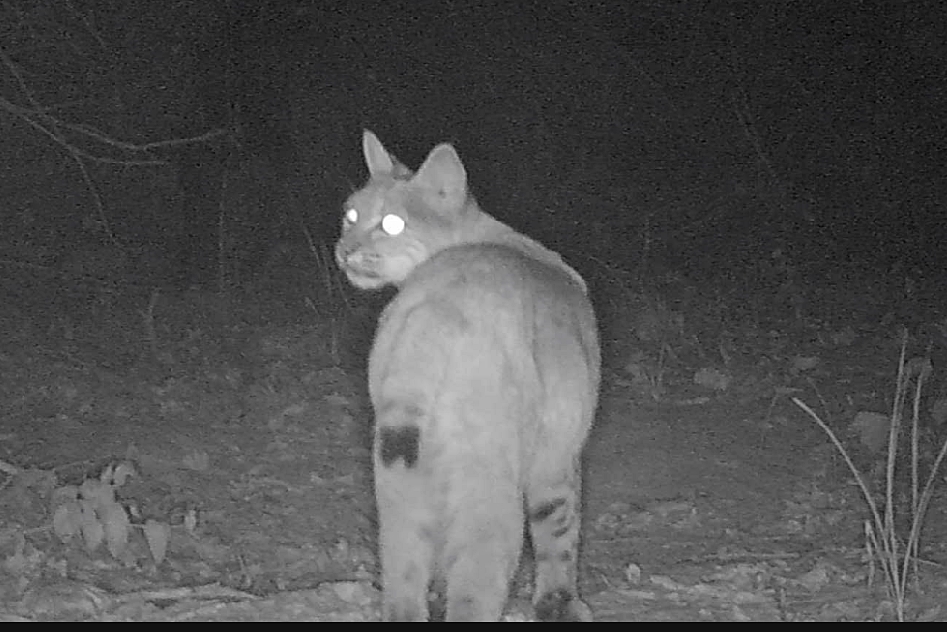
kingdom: Animalia
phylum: Chordata
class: Mammalia
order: Carnivora
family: Felidae
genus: Lynx
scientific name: Lynx rufus
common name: Bobcat
